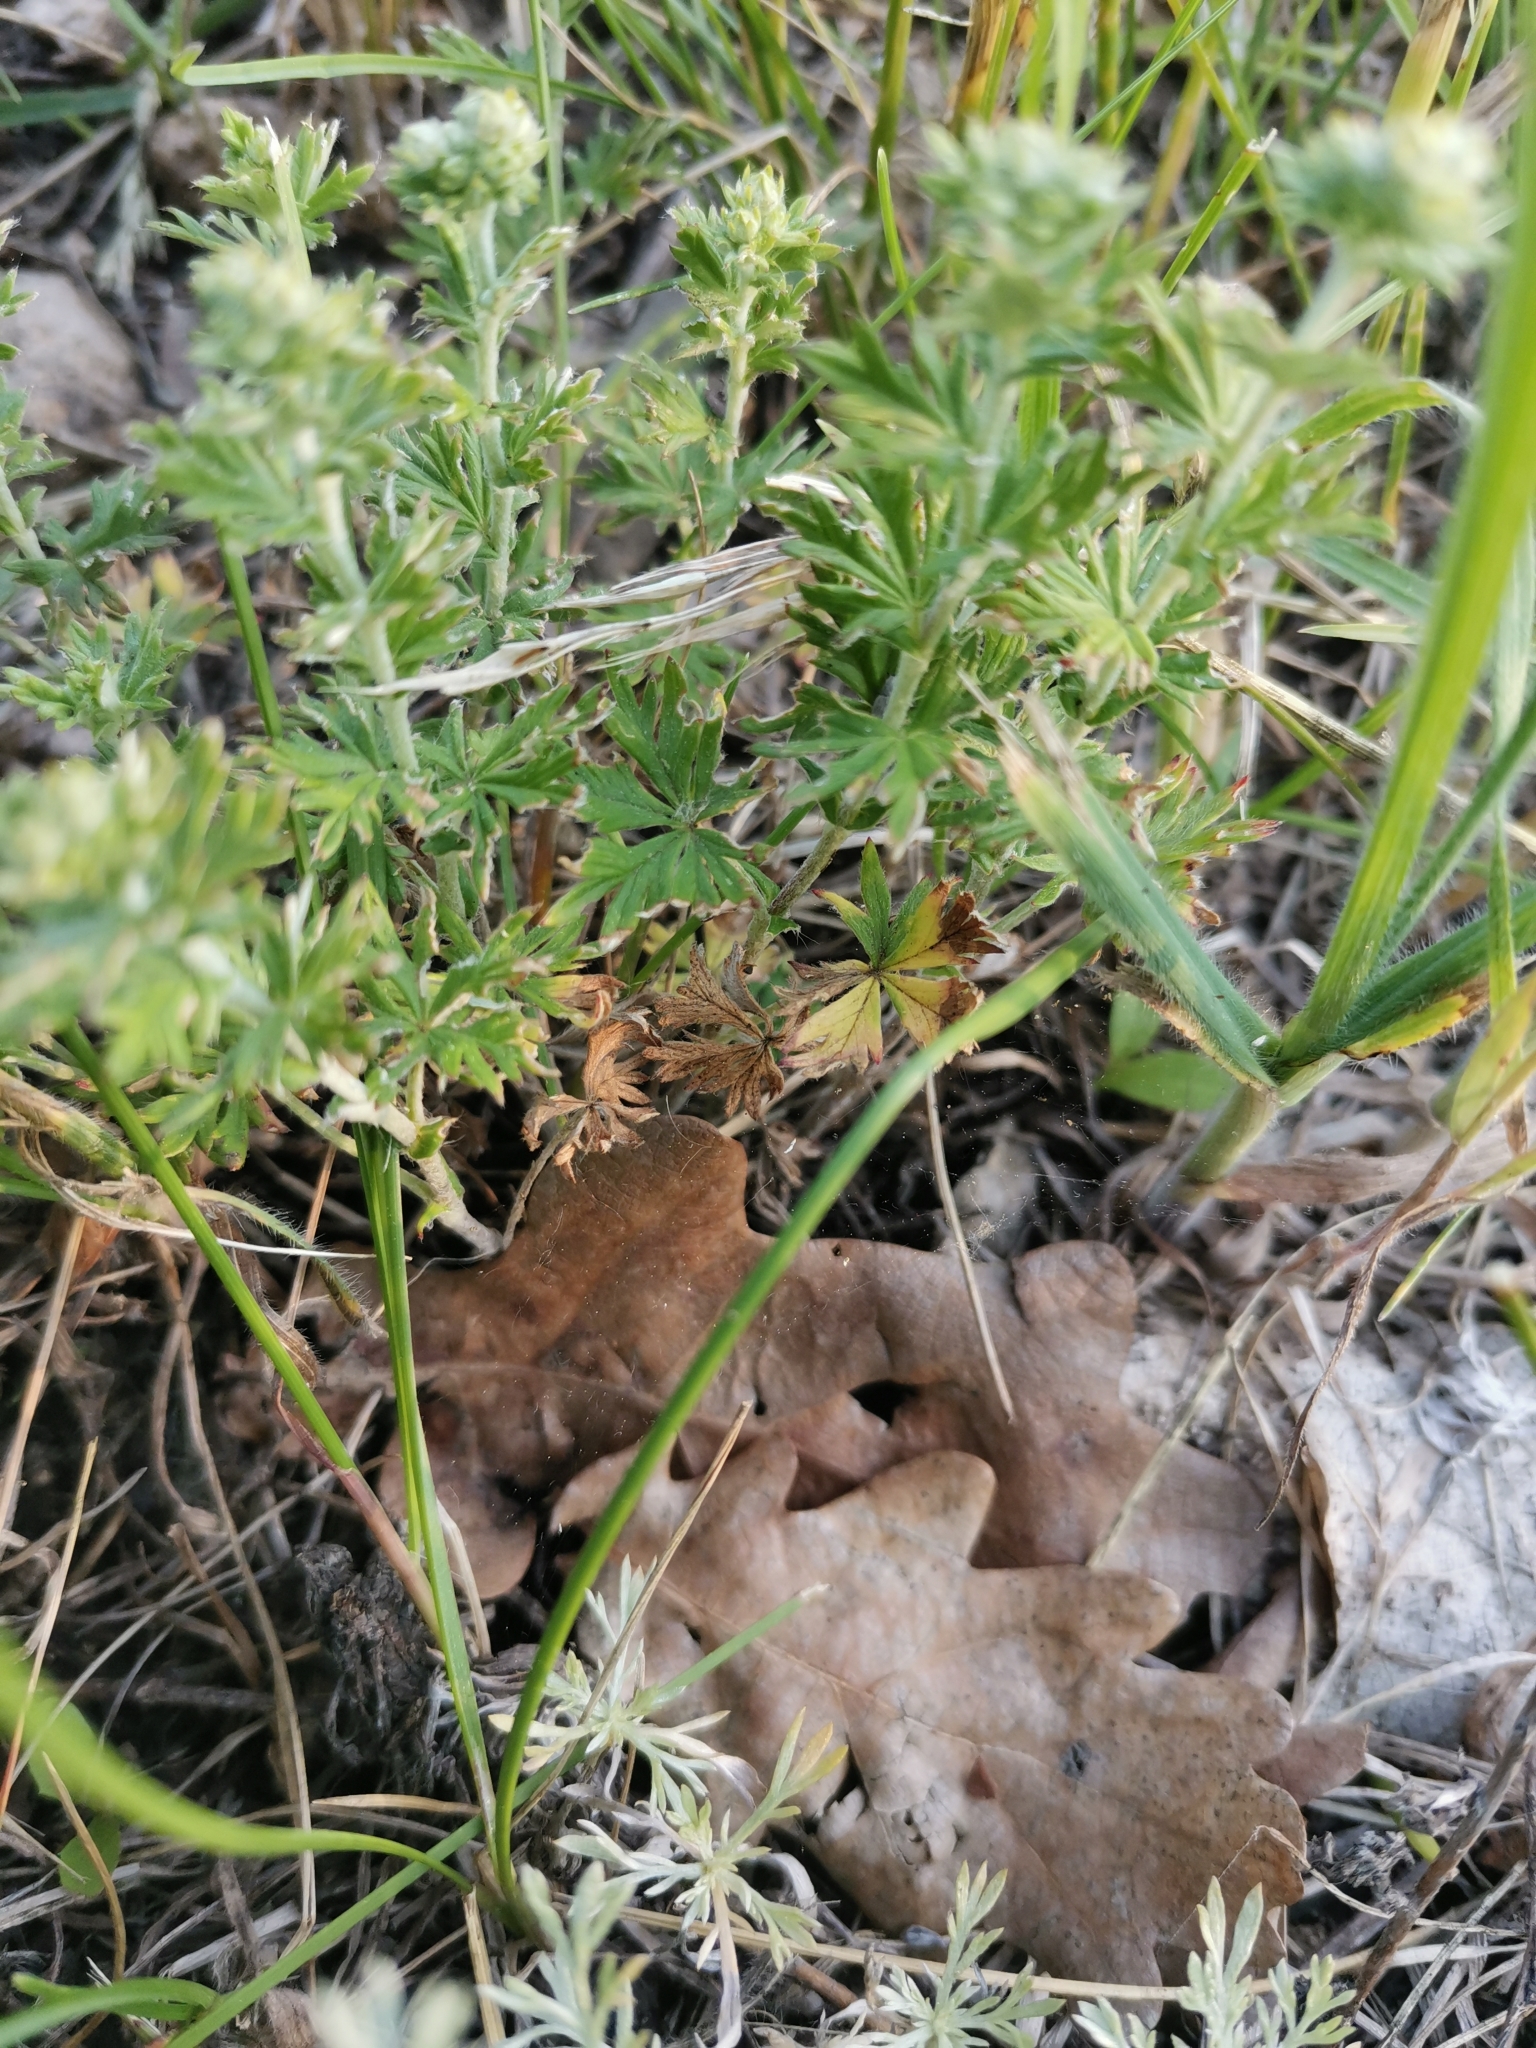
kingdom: Plantae
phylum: Tracheophyta
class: Magnoliopsida
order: Rosales
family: Rosaceae
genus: Potentilla
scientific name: Potentilla argentea
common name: Hoary cinquefoil
